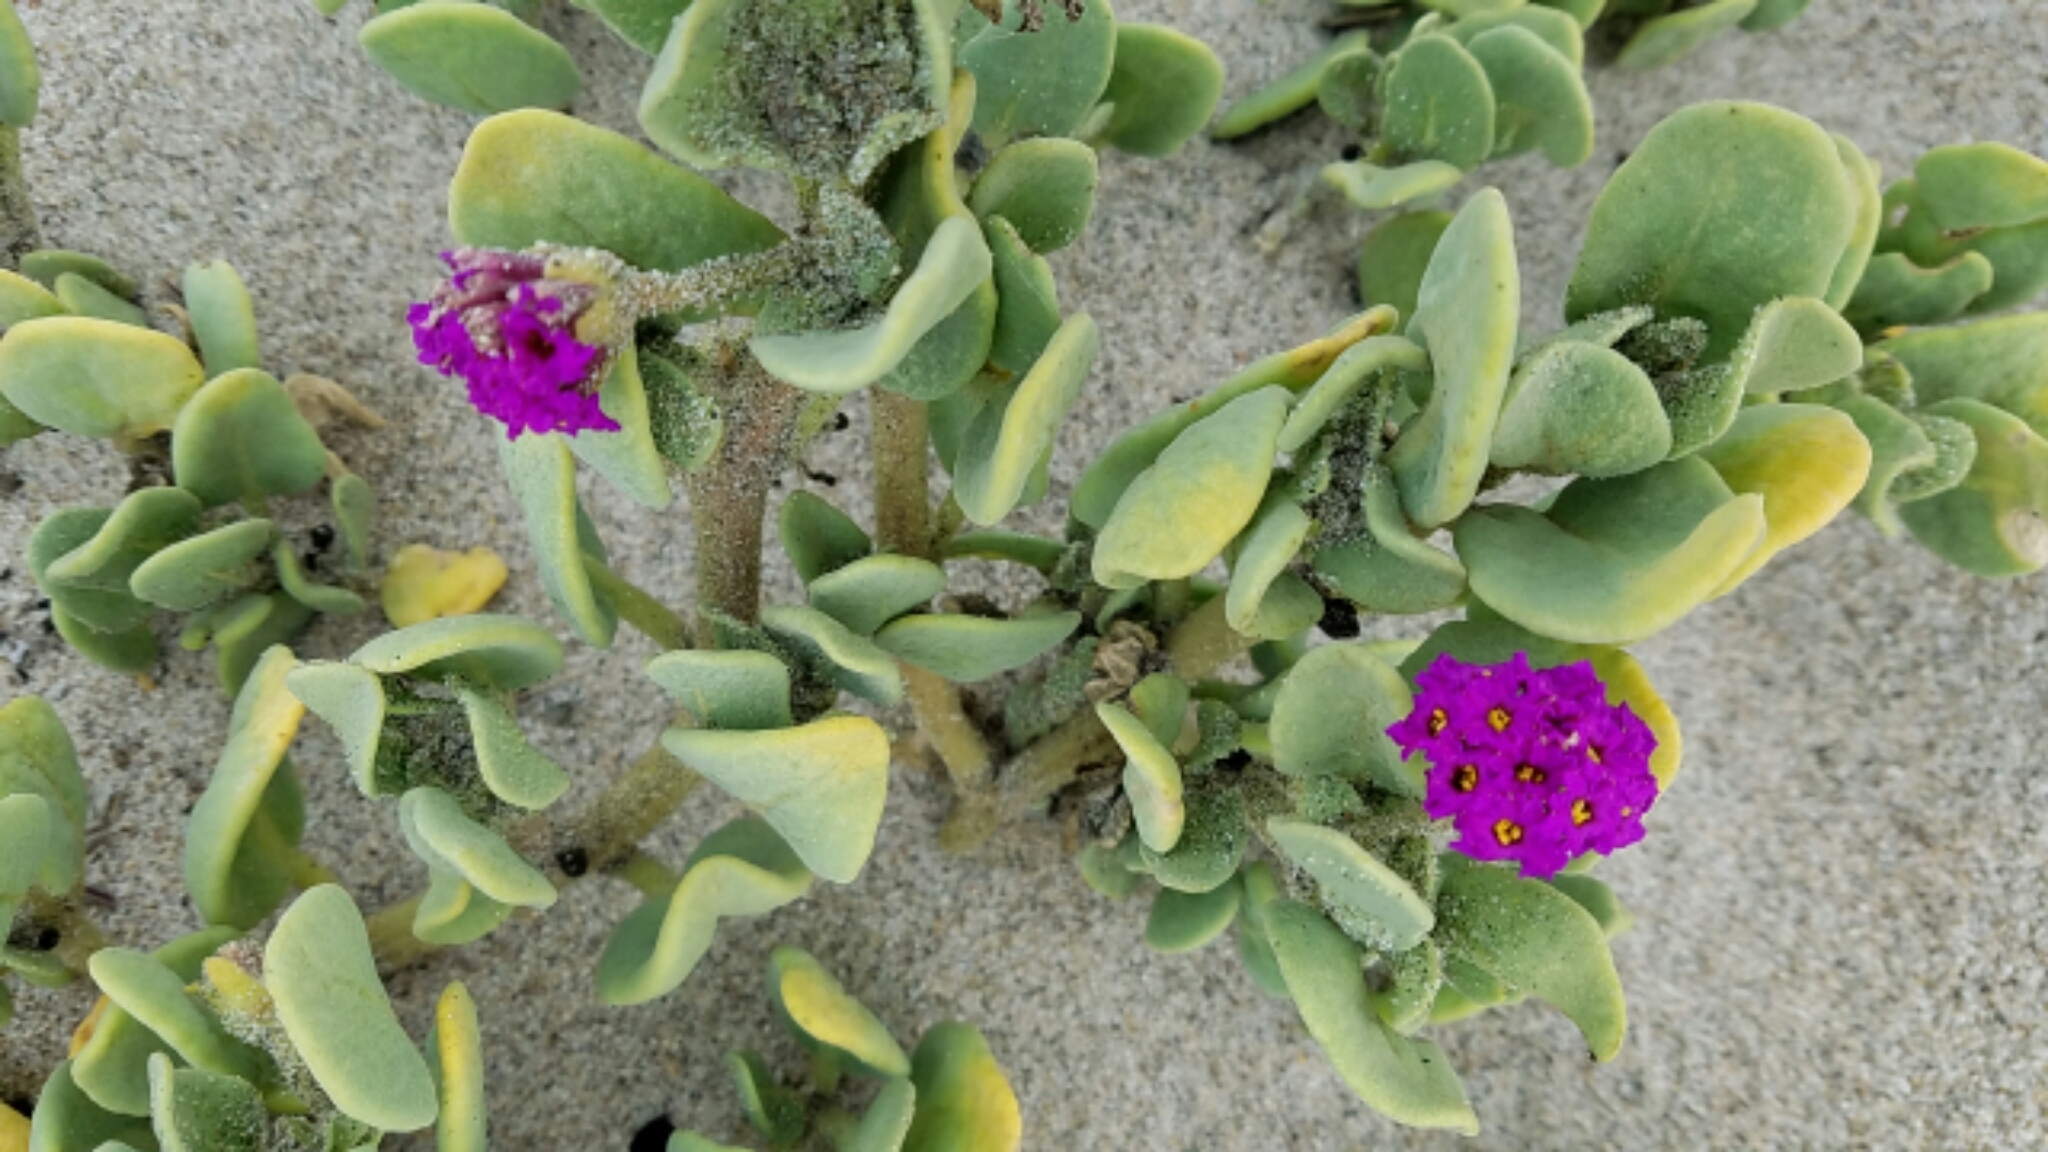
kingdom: Plantae
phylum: Tracheophyta
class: Magnoliopsida
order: Caryophyllales
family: Nyctaginaceae
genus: Abronia
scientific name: Abronia maritima
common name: Red sand-verbena
